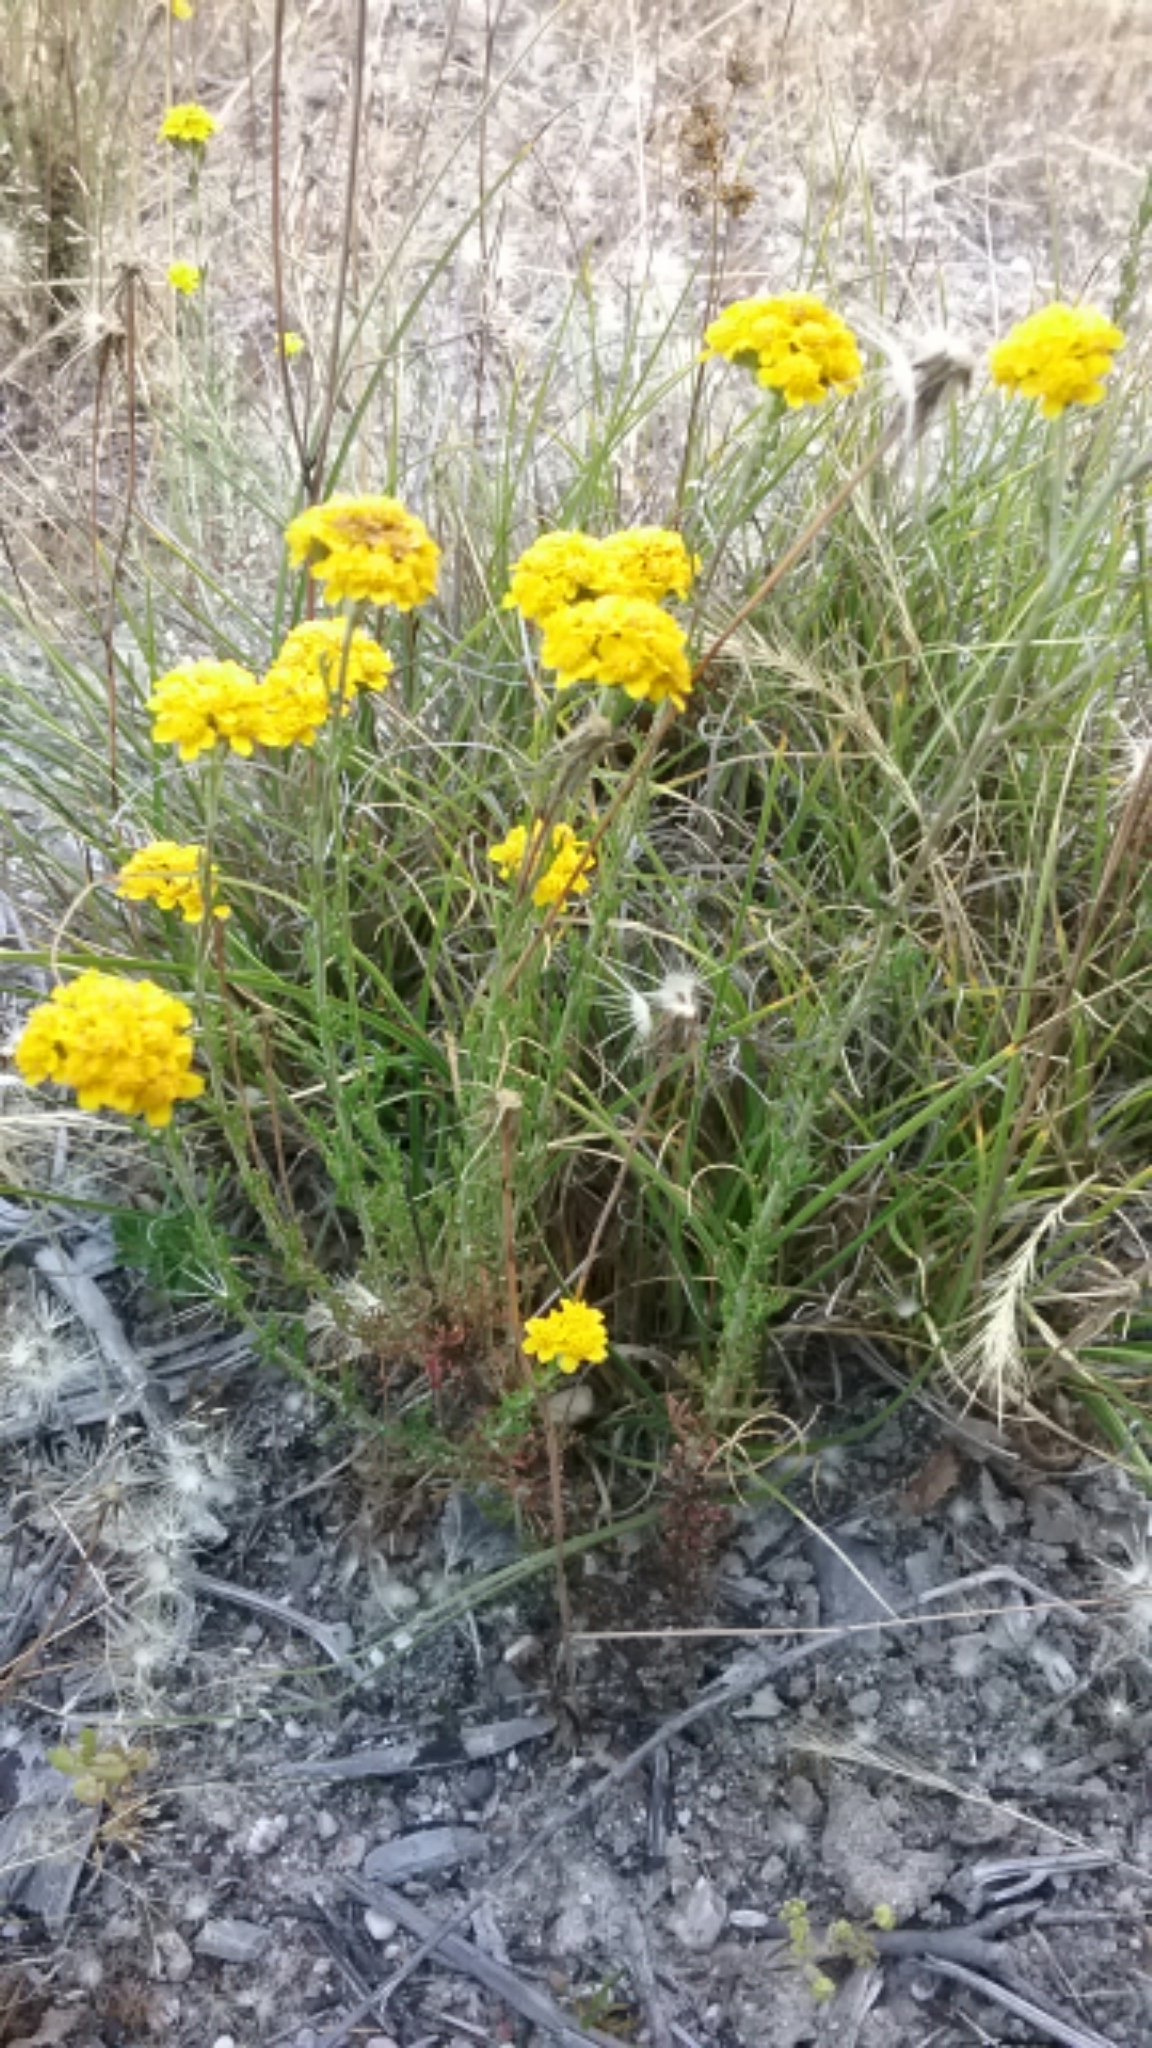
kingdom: Plantae
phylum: Tracheophyta
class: Magnoliopsida
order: Asterales
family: Asteraceae
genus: Eriophyllum
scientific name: Eriophyllum confertiflorum
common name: Golden-yarrow
